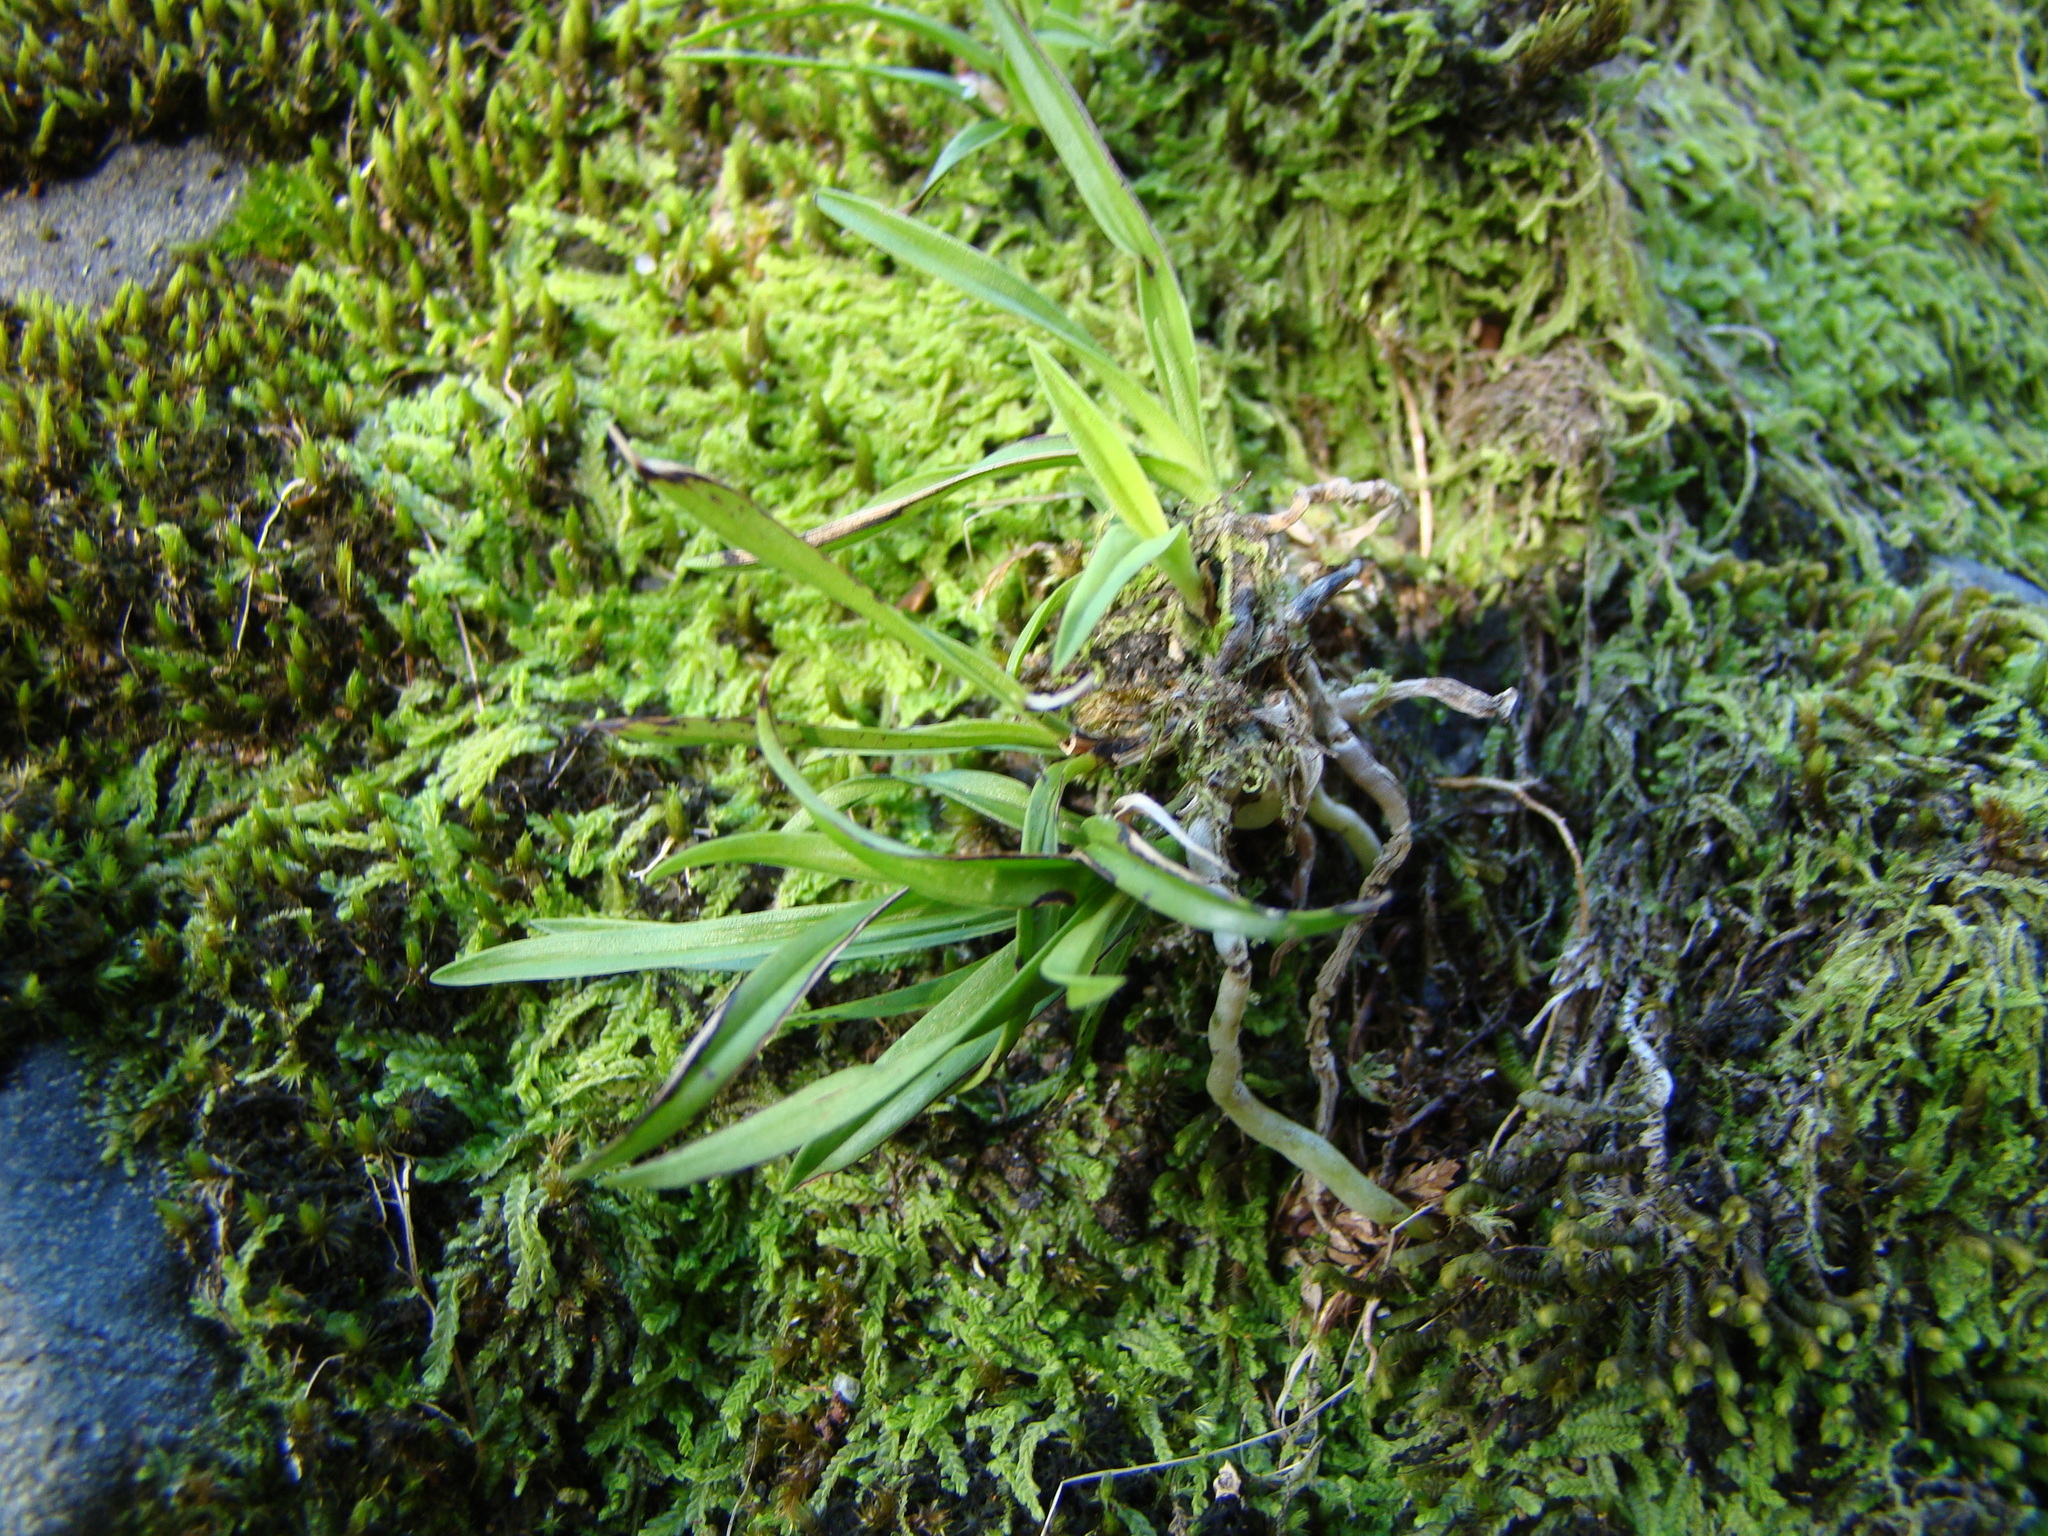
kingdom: Plantae
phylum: Tracheophyta
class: Liliopsida
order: Asparagales
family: Orchidaceae
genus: Earina
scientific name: Earina autumnalis
